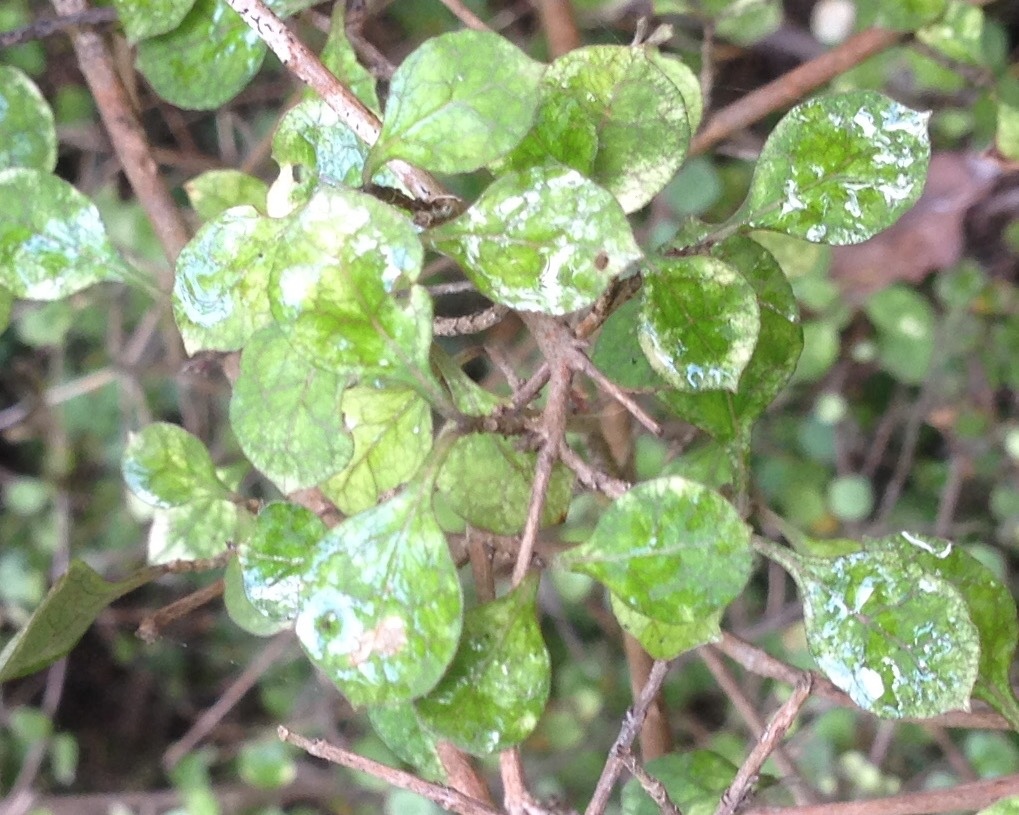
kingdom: Plantae
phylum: Tracheophyta
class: Magnoliopsida
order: Gentianales
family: Rubiaceae
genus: Coprosma
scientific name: Coprosma areolata
